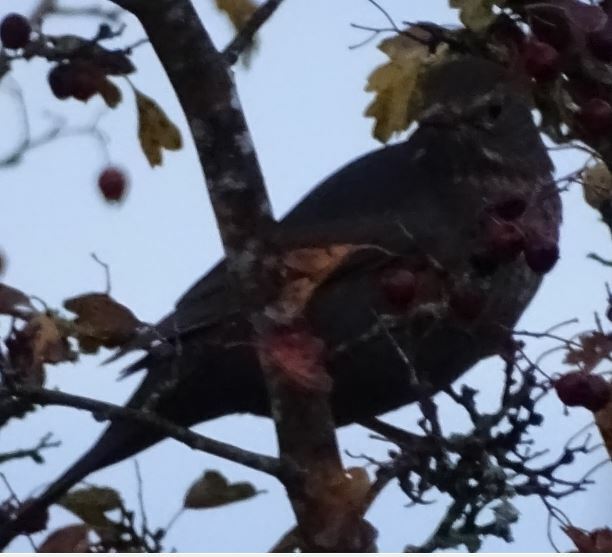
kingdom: Animalia
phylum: Chordata
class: Aves
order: Passeriformes
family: Turdidae
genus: Turdus
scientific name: Turdus merula
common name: Common blackbird
